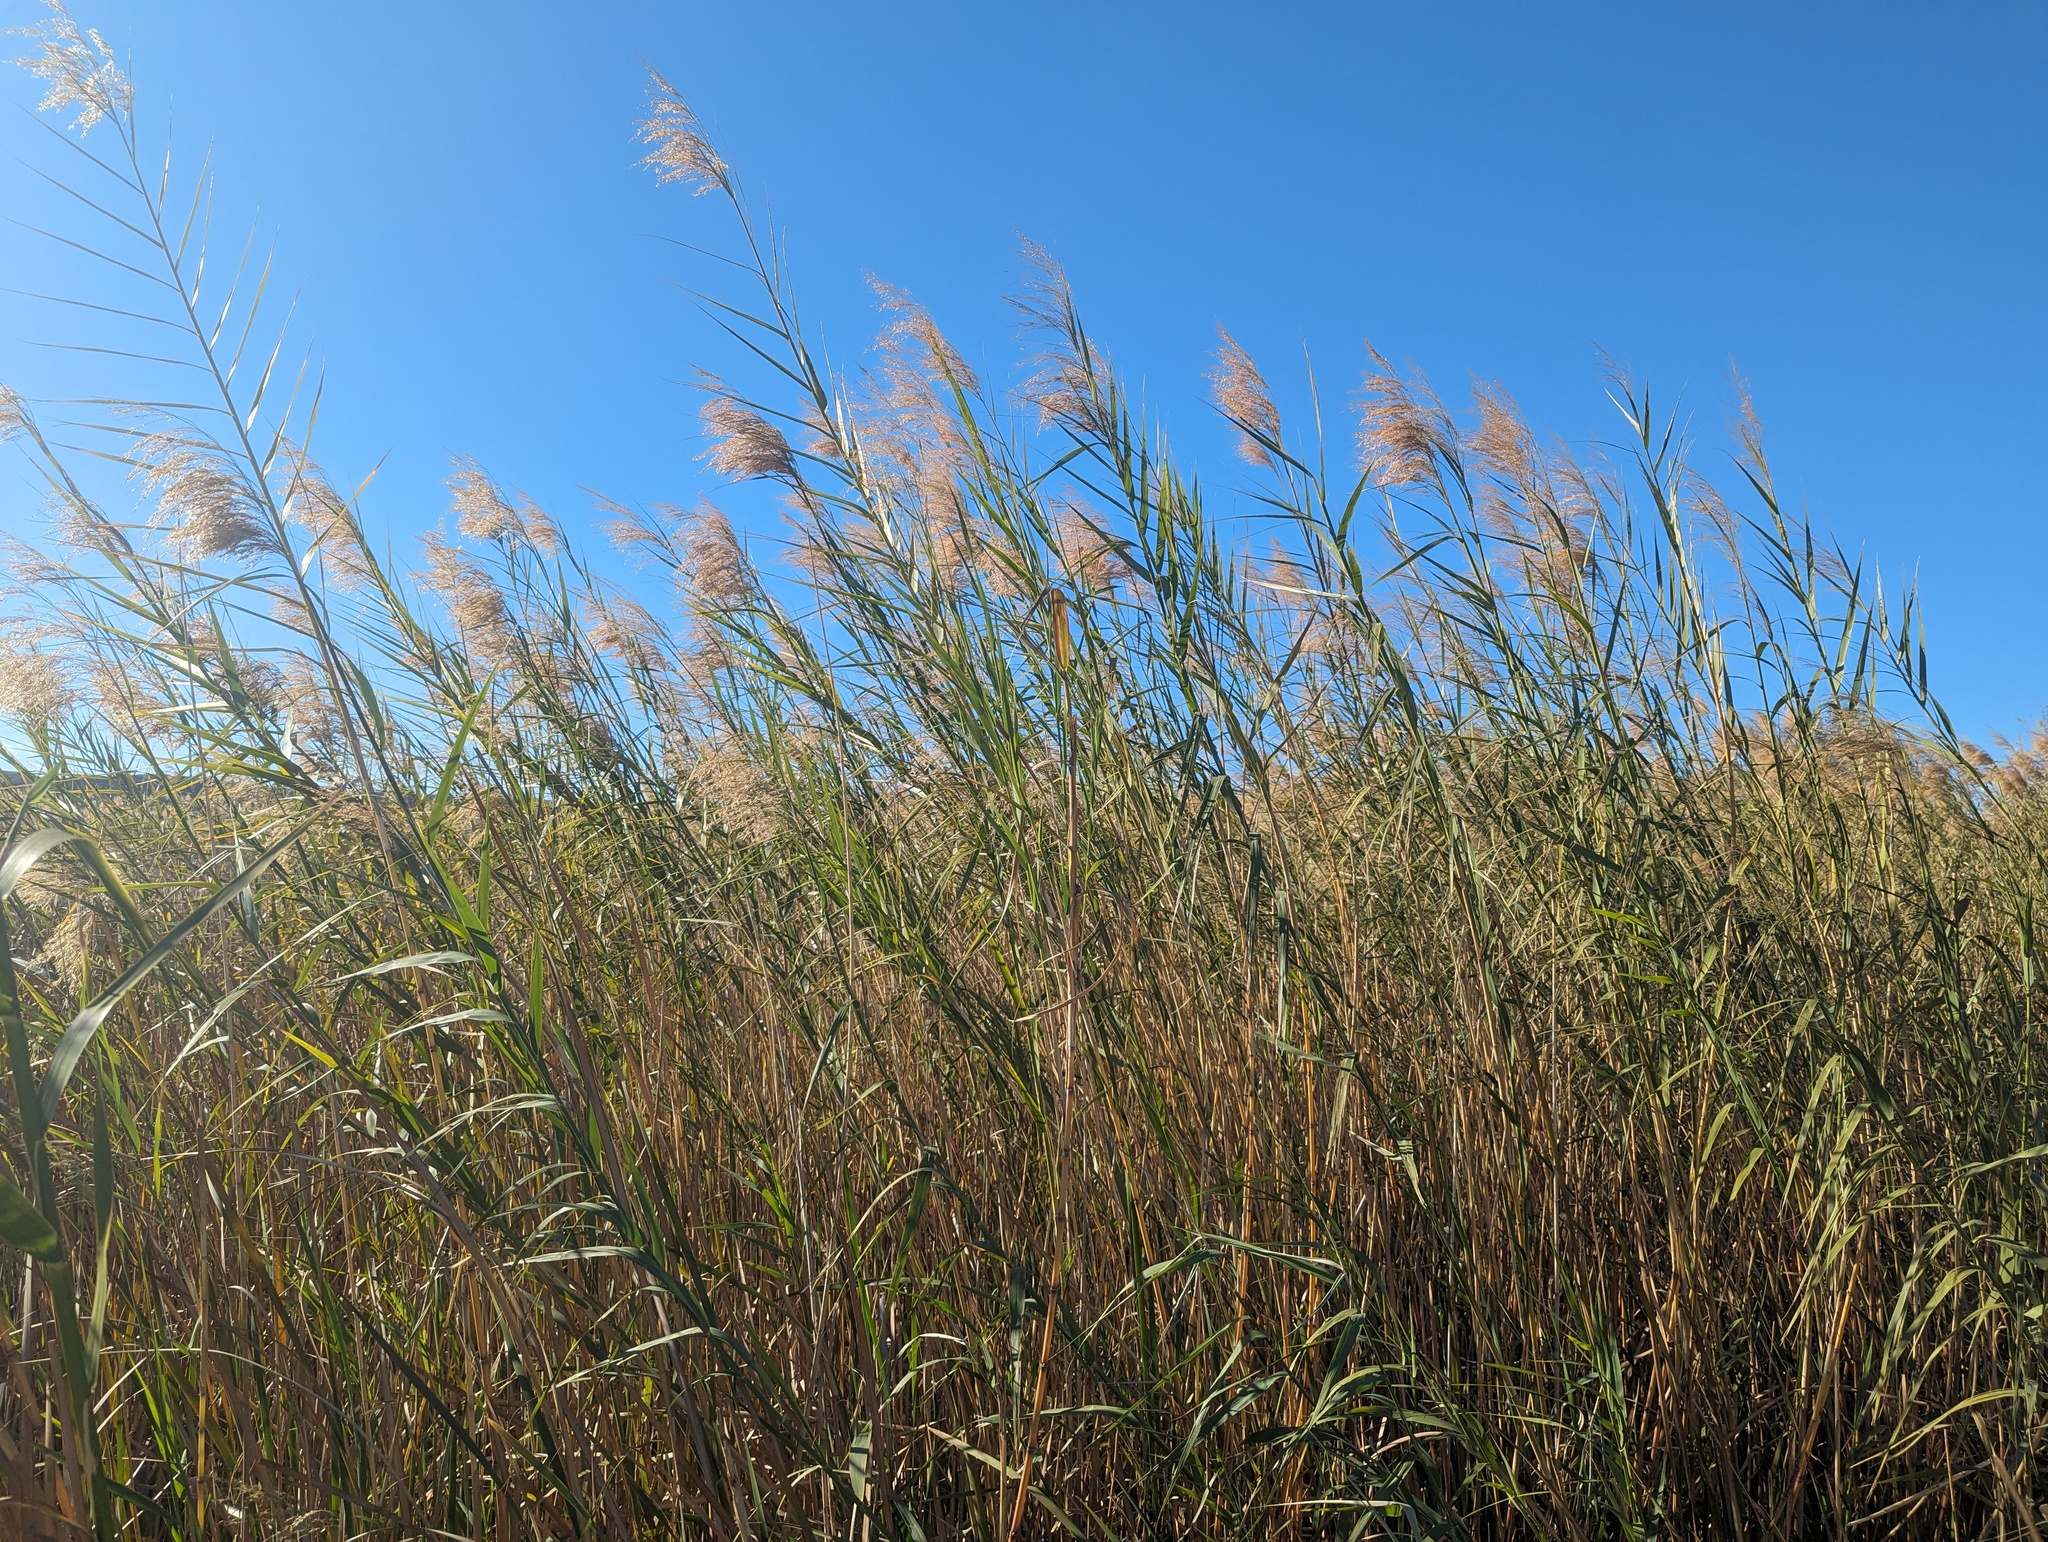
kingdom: Plantae
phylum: Tracheophyta
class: Liliopsida
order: Poales
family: Poaceae
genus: Phragmites
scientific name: Phragmites australis
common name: Common reed
